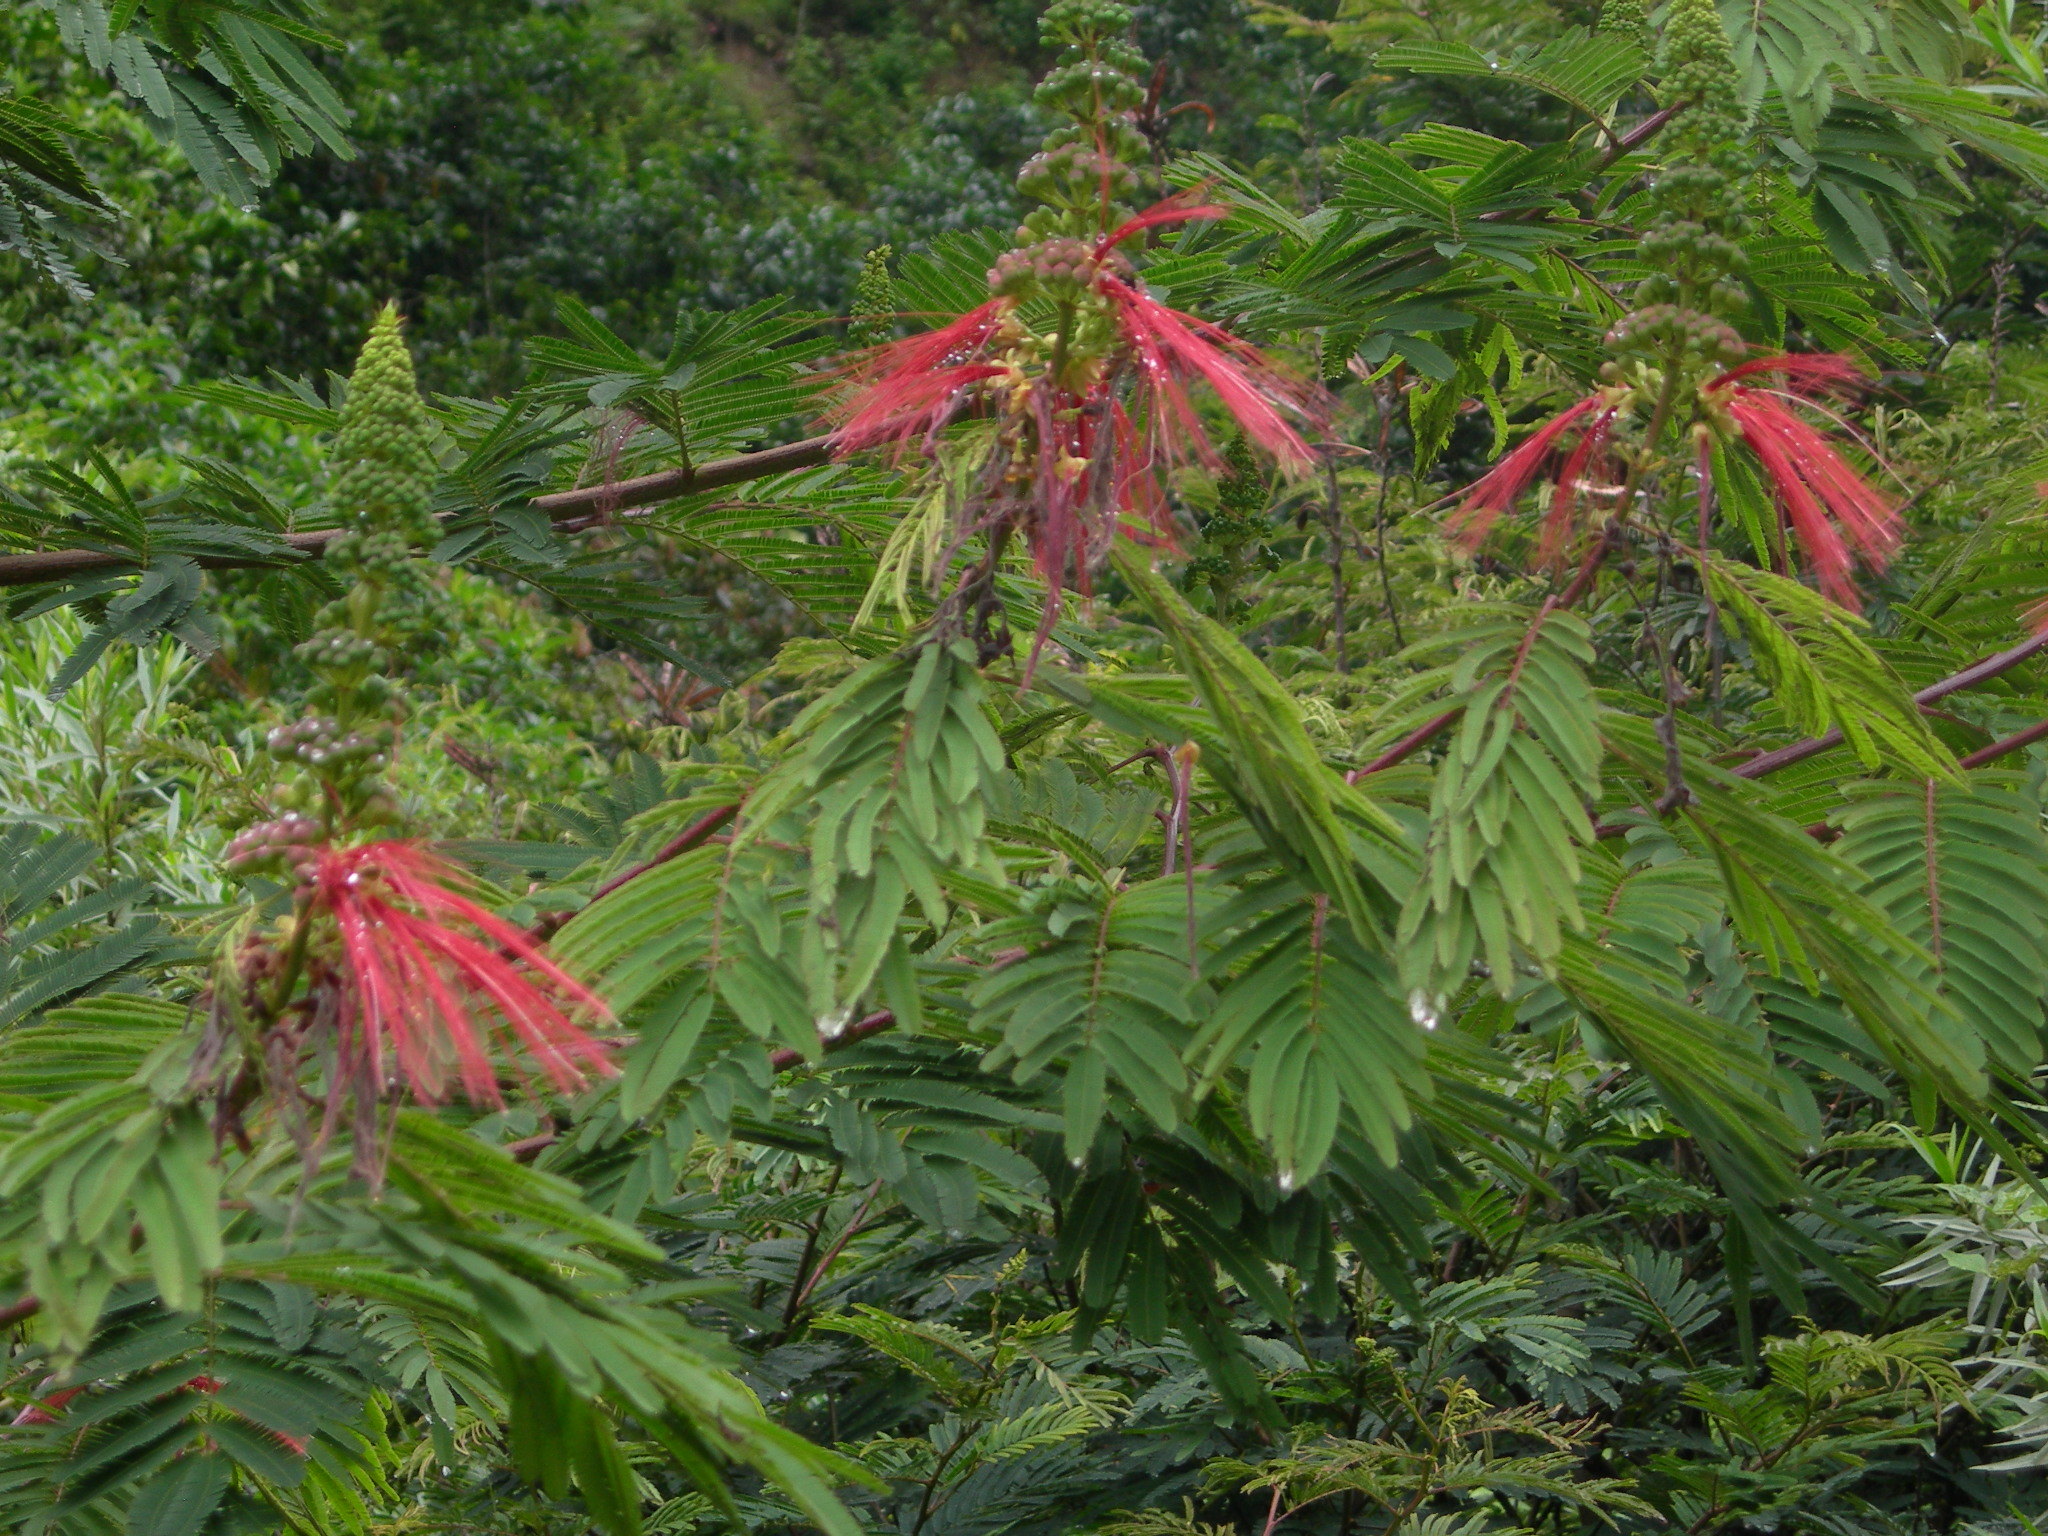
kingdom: Plantae
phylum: Tracheophyta
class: Magnoliopsida
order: Fabales
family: Fabaceae
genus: Calliandra
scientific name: Calliandra houstoniana
